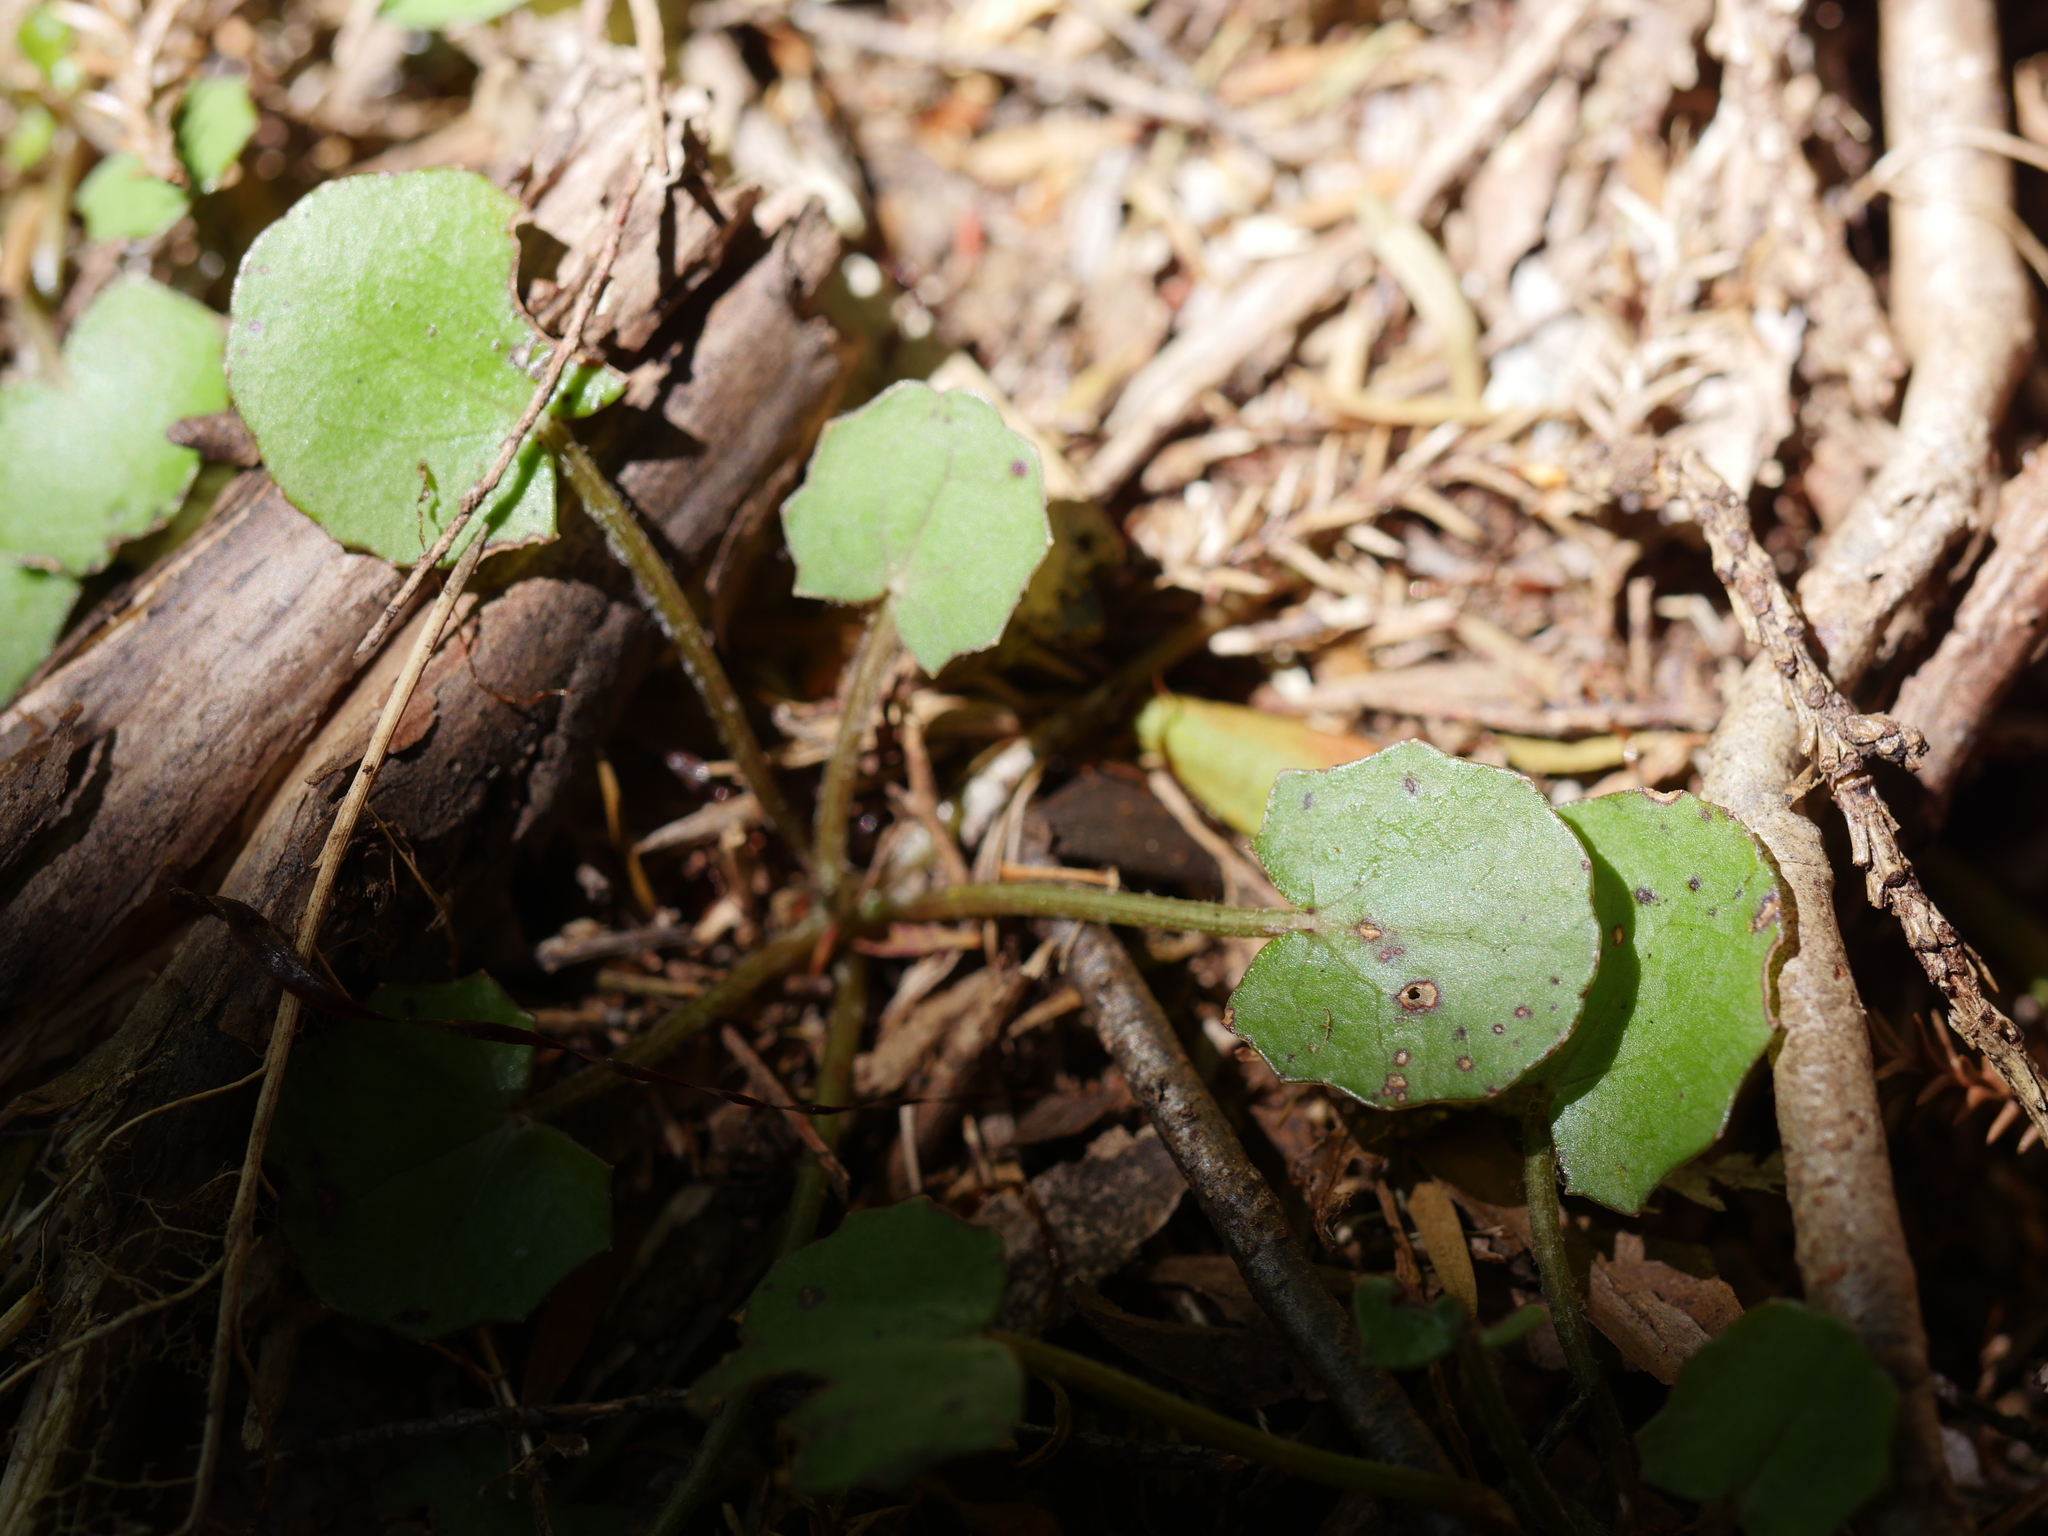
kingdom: Plantae
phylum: Tracheophyta
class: Magnoliopsida
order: Apiales
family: Apiaceae
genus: Centella
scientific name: Centella uniflora
